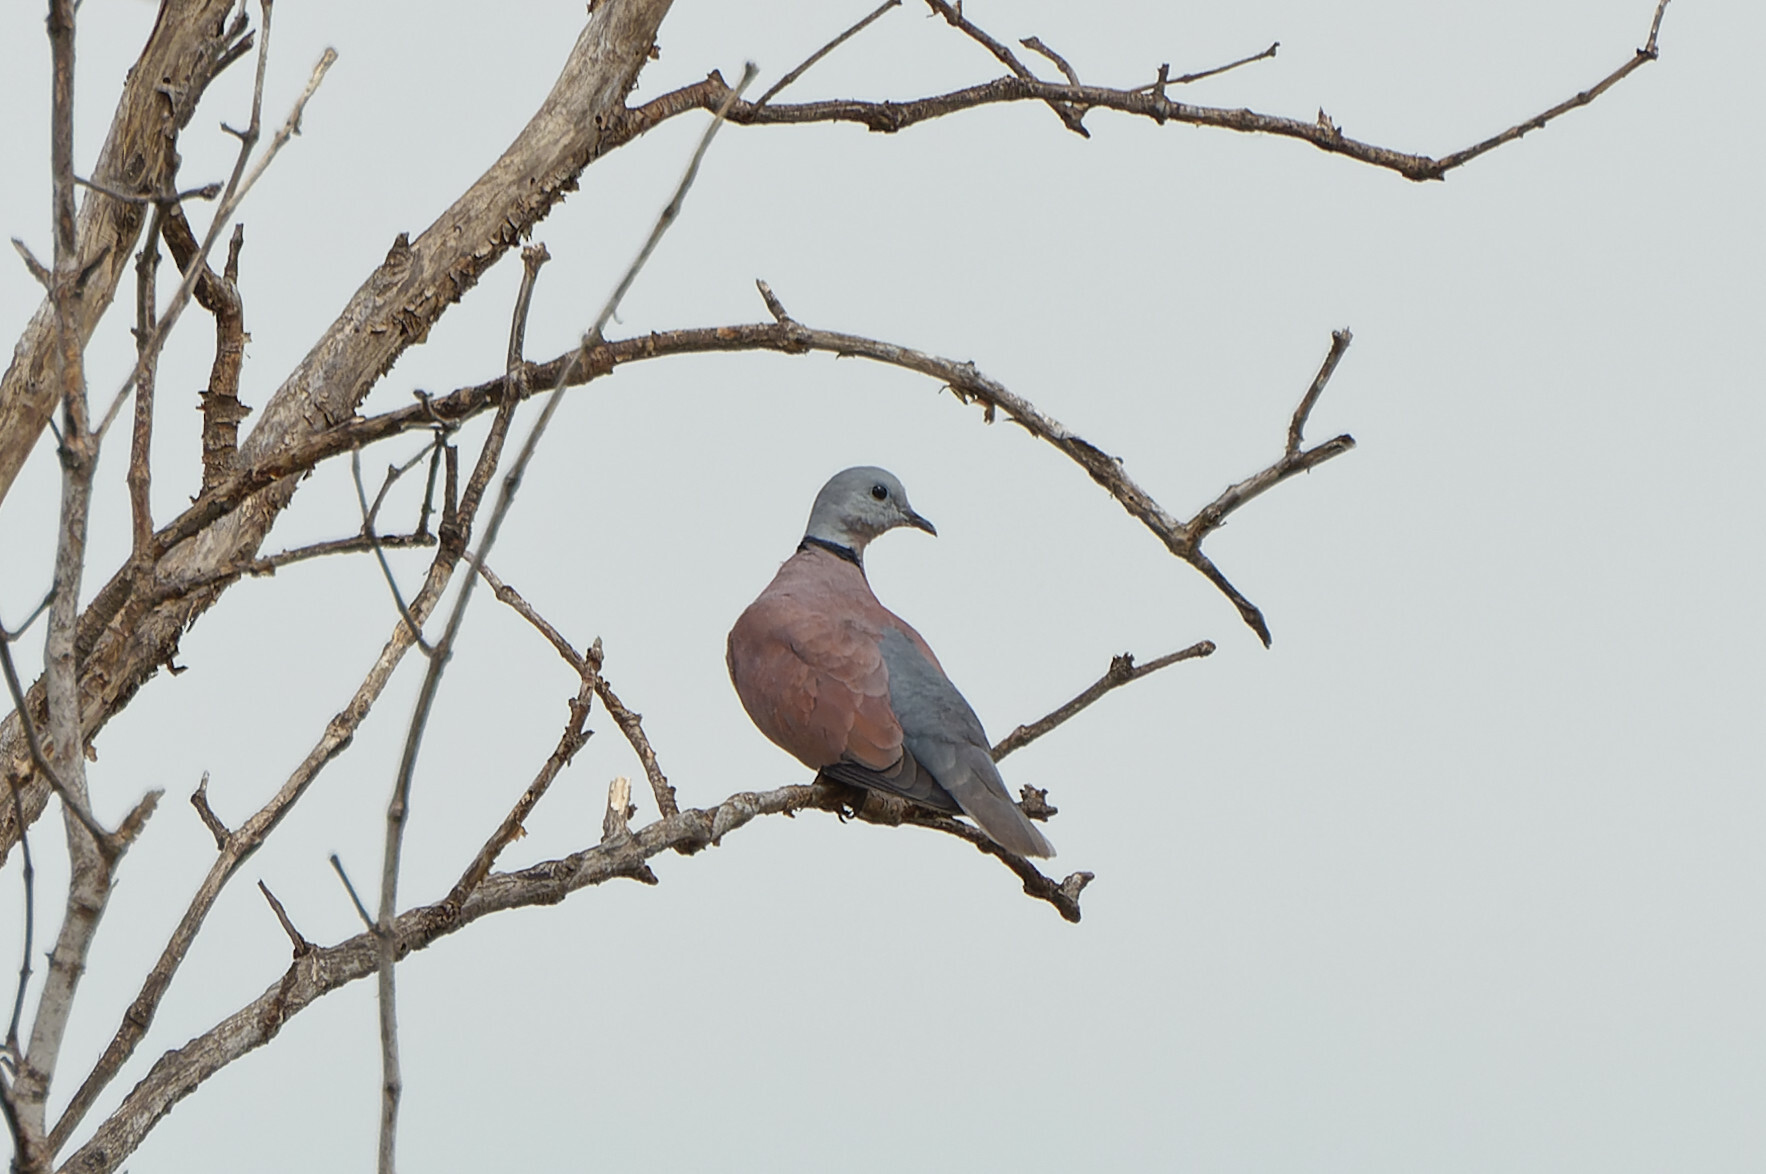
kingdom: Animalia
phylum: Chordata
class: Aves
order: Columbiformes
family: Columbidae
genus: Streptopelia
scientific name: Streptopelia tranquebarica
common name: Red turtle dove
